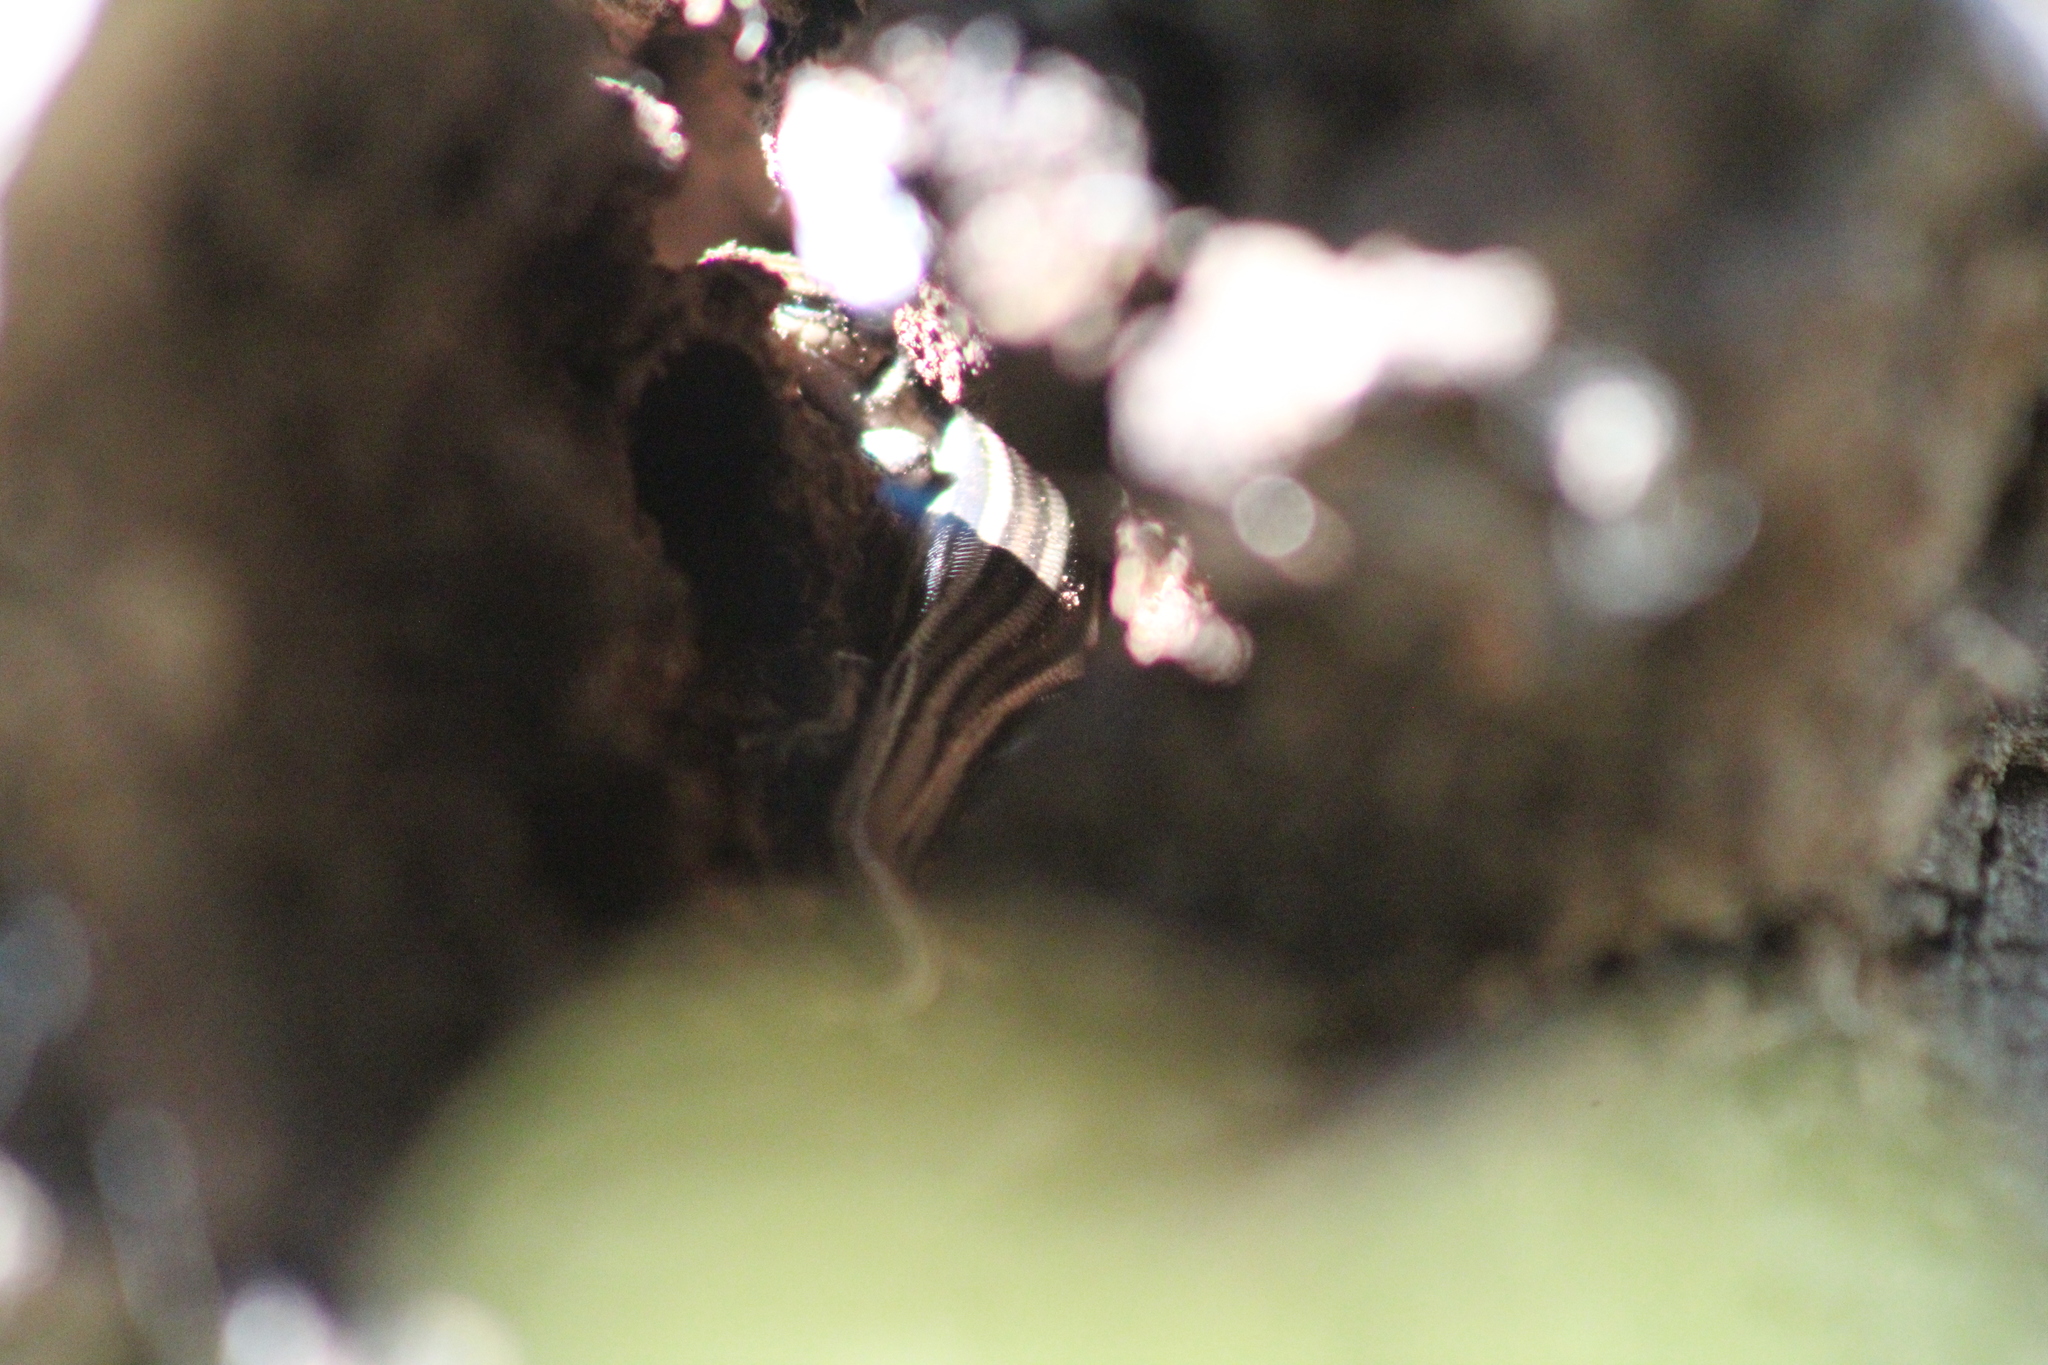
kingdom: Animalia
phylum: Chordata
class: Squamata
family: Scincidae
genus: Plestiodon
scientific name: Plestiodon fasciatus
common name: Five-lined skink
